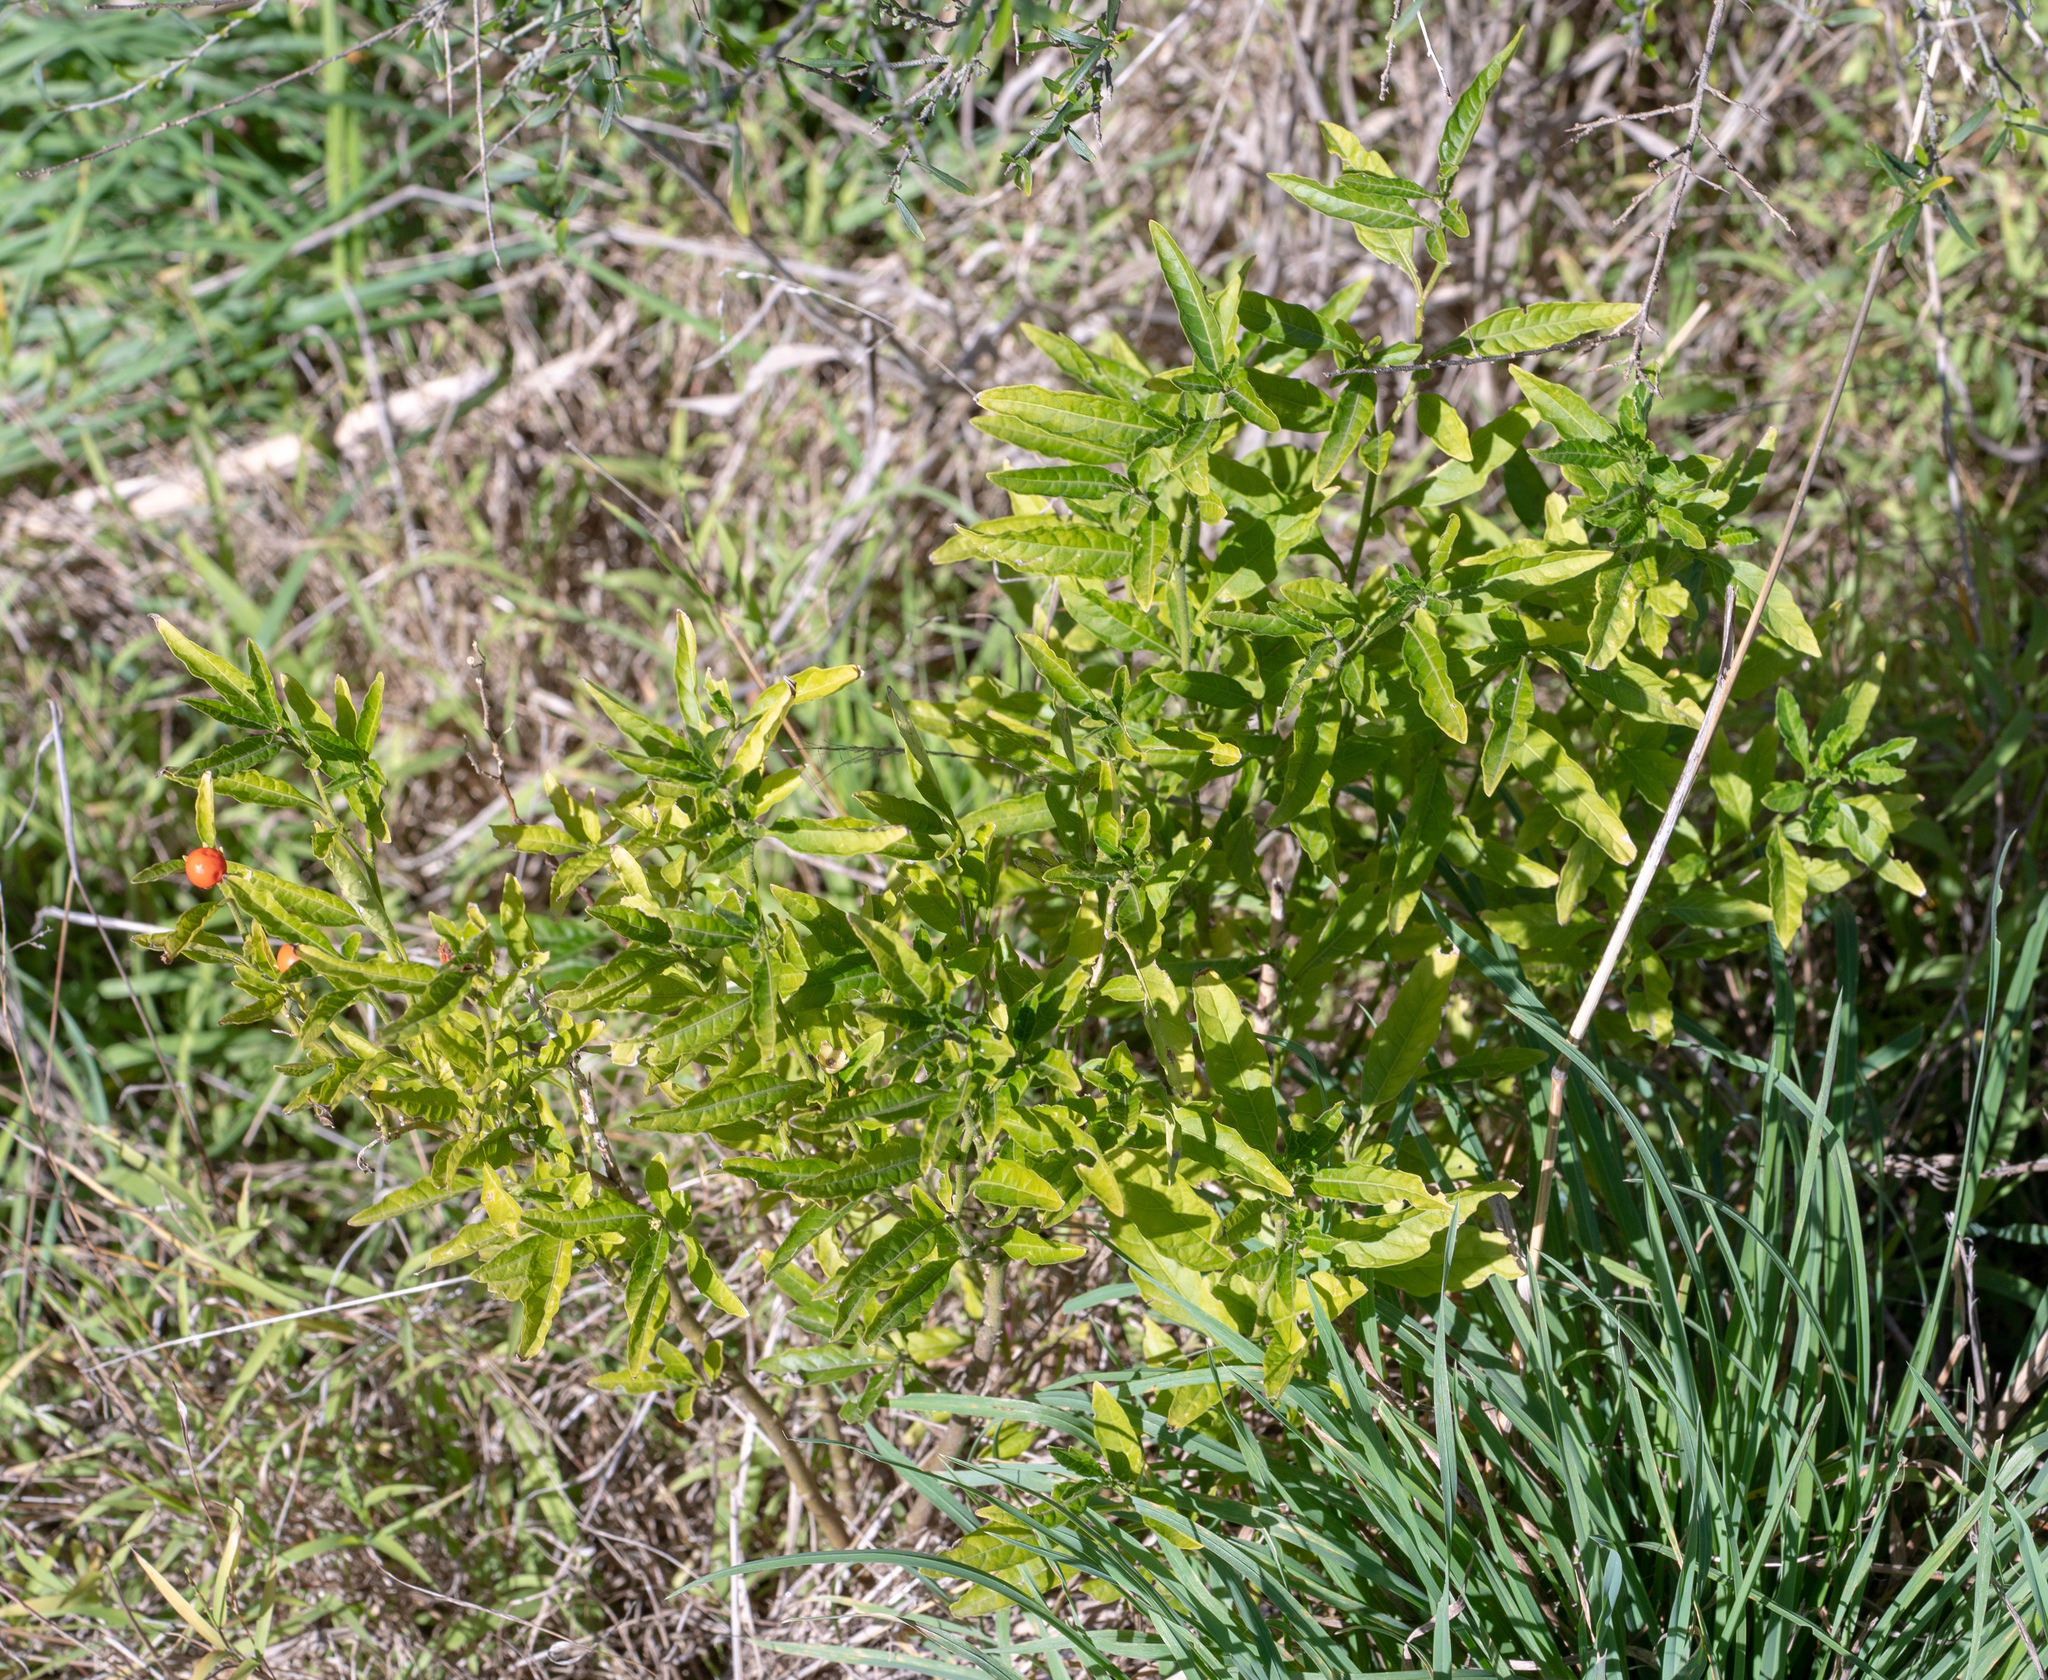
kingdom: Plantae
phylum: Tracheophyta
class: Magnoliopsida
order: Solanales
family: Solanaceae
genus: Solanum
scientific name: Solanum pseudocapsicum
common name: Jerusalem cherry
